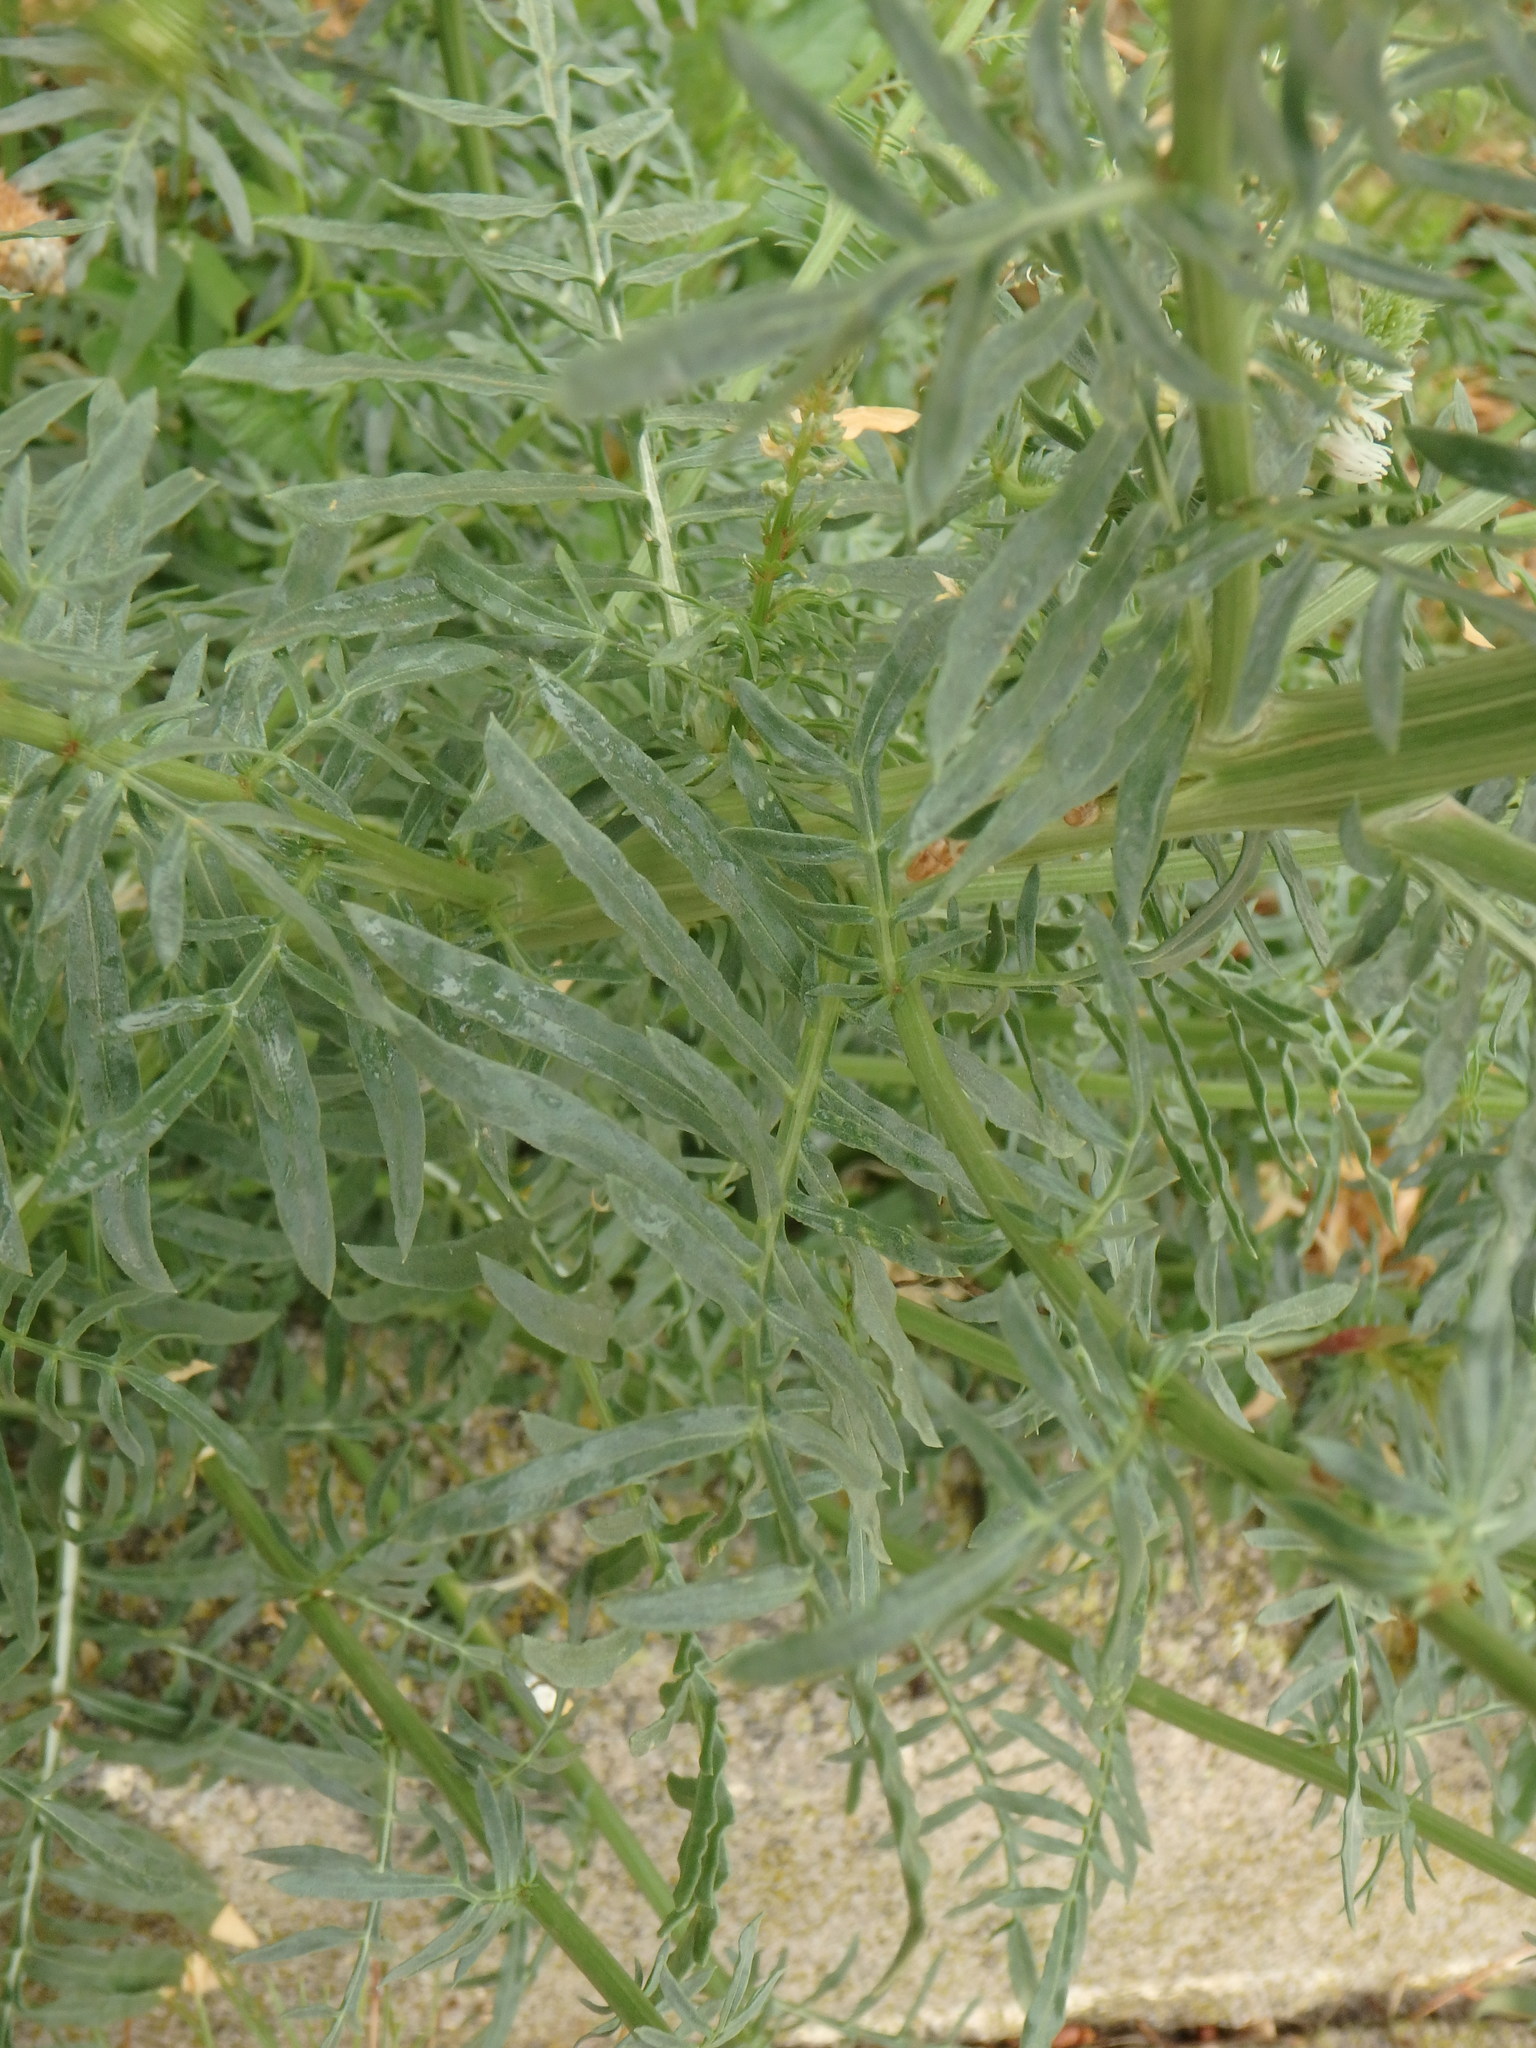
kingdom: Plantae
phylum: Tracheophyta
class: Magnoliopsida
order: Brassicales
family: Resedaceae
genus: Reseda
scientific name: Reseda alba
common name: White mignonette
